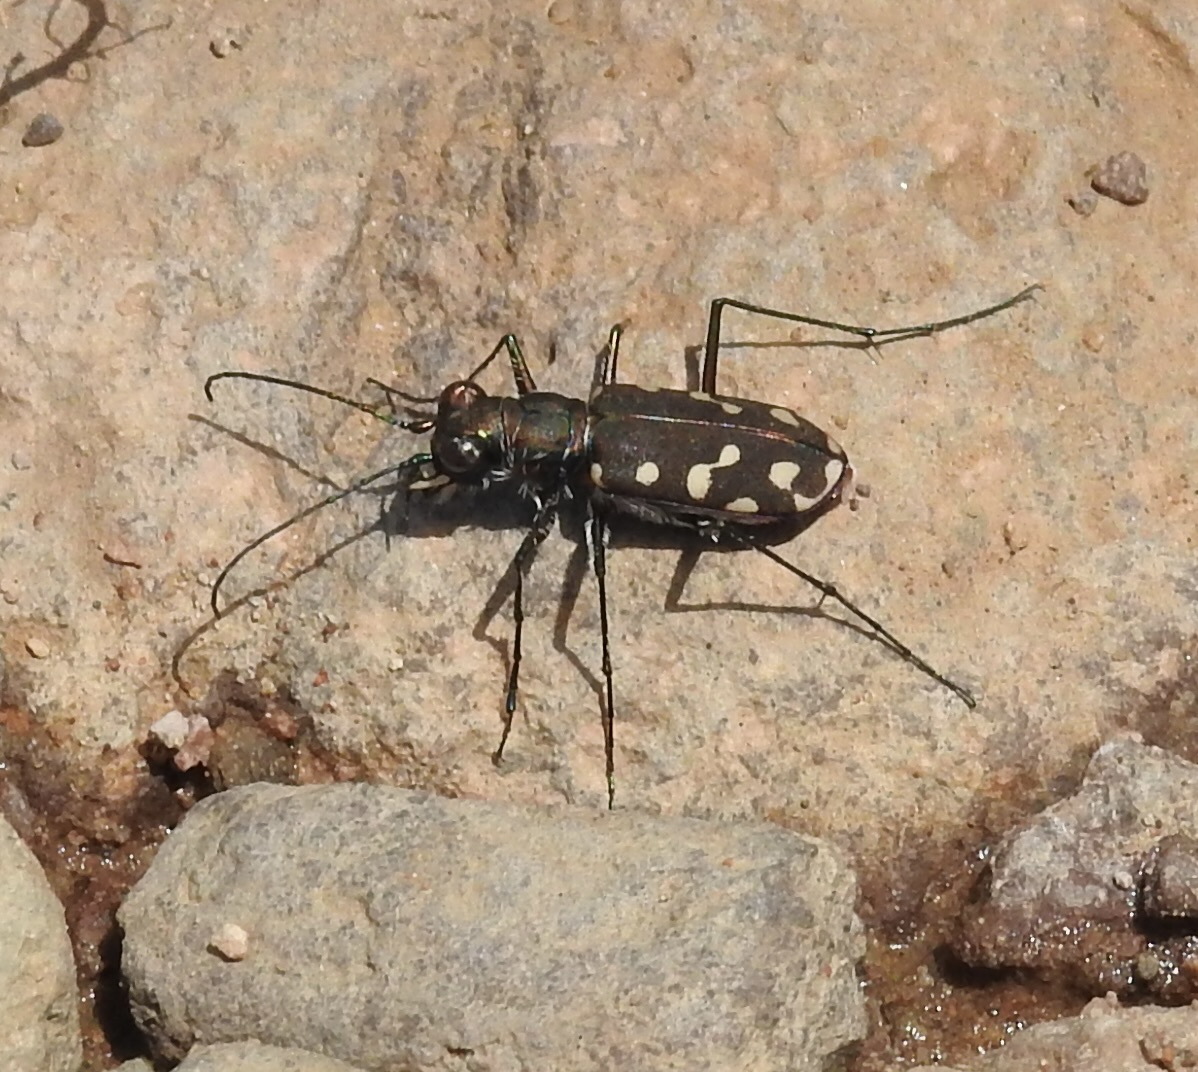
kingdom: Animalia
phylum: Arthropoda
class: Insecta
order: Coleoptera
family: Carabidae
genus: Cicindela
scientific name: Cicindela sedecimpunctata
